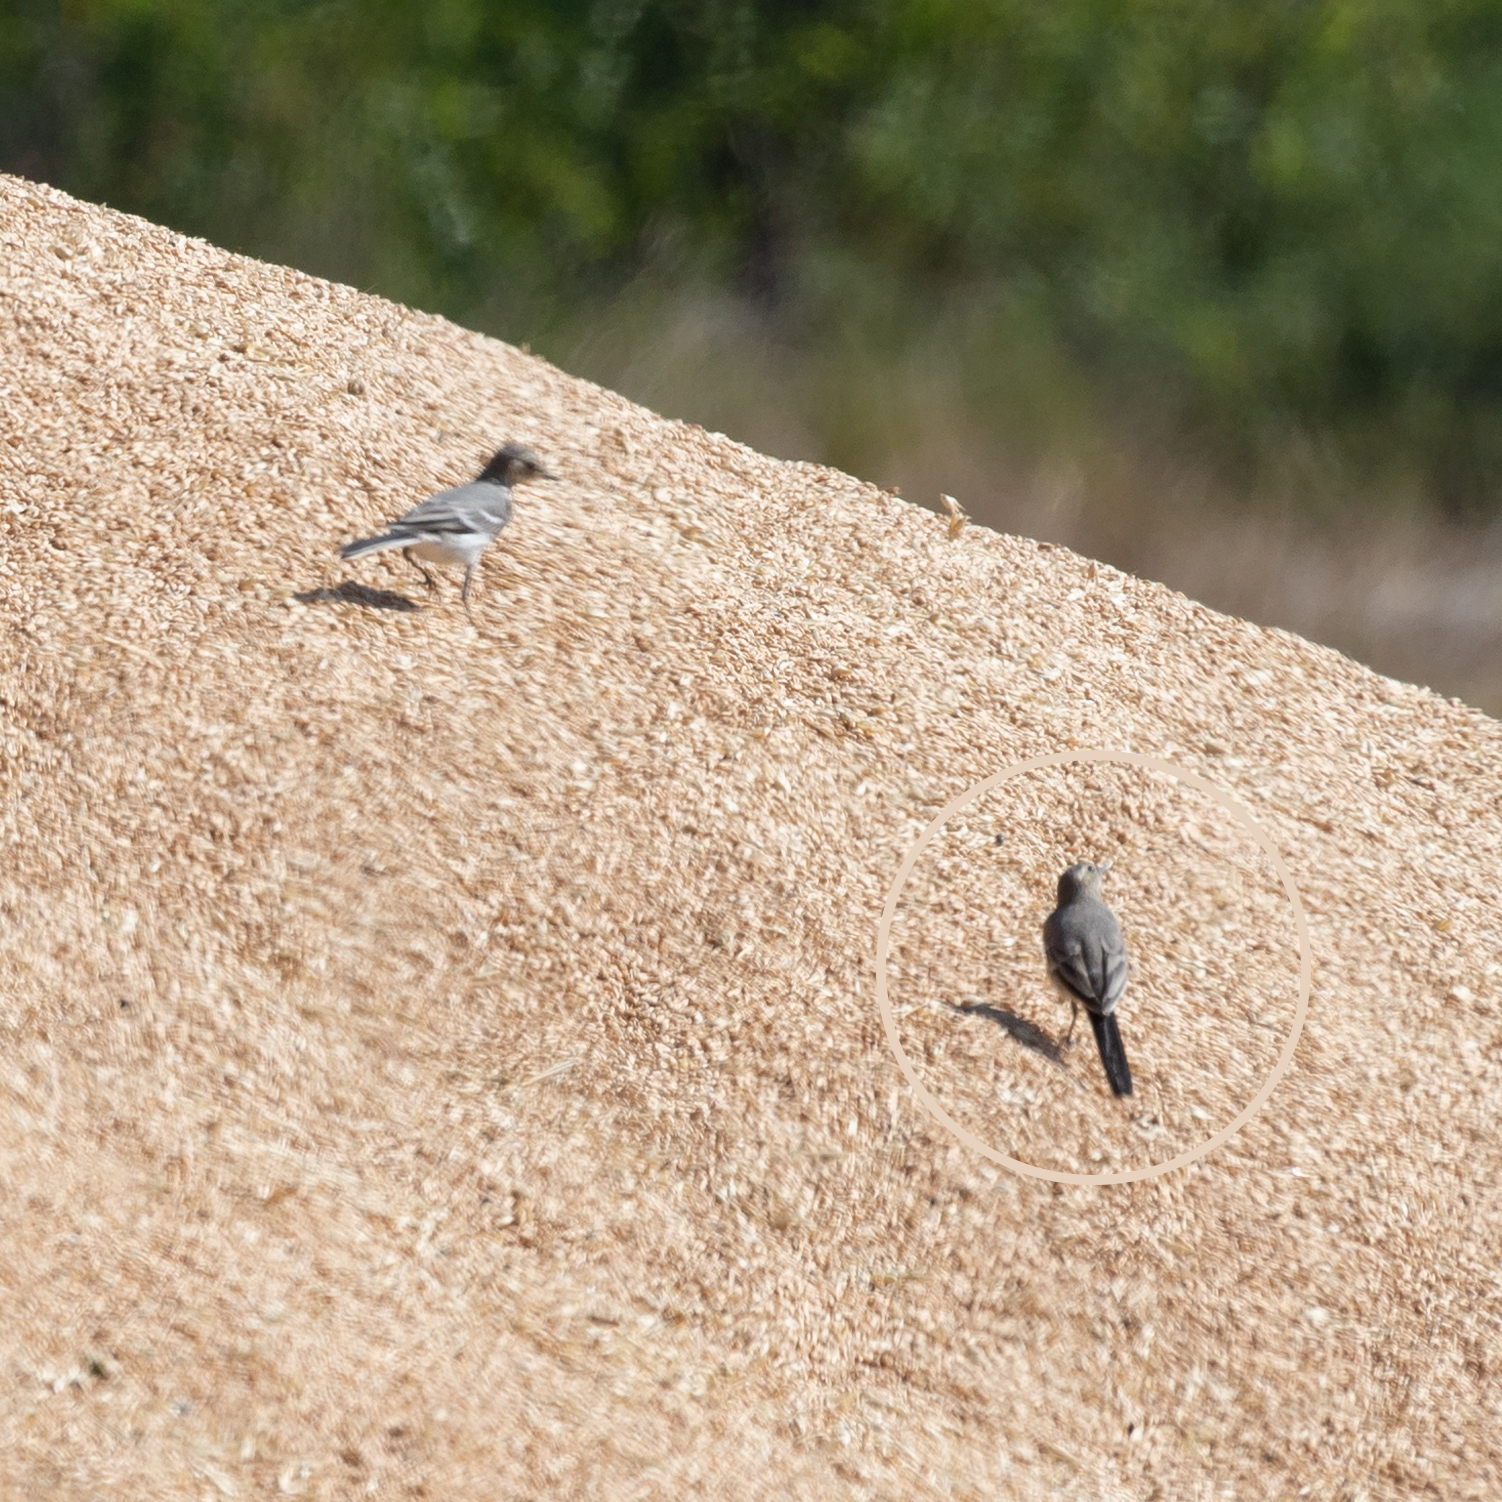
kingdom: Animalia
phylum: Chordata
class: Aves
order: Passeriformes
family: Motacillidae
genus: Motacilla
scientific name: Motacilla alba
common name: White wagtail
